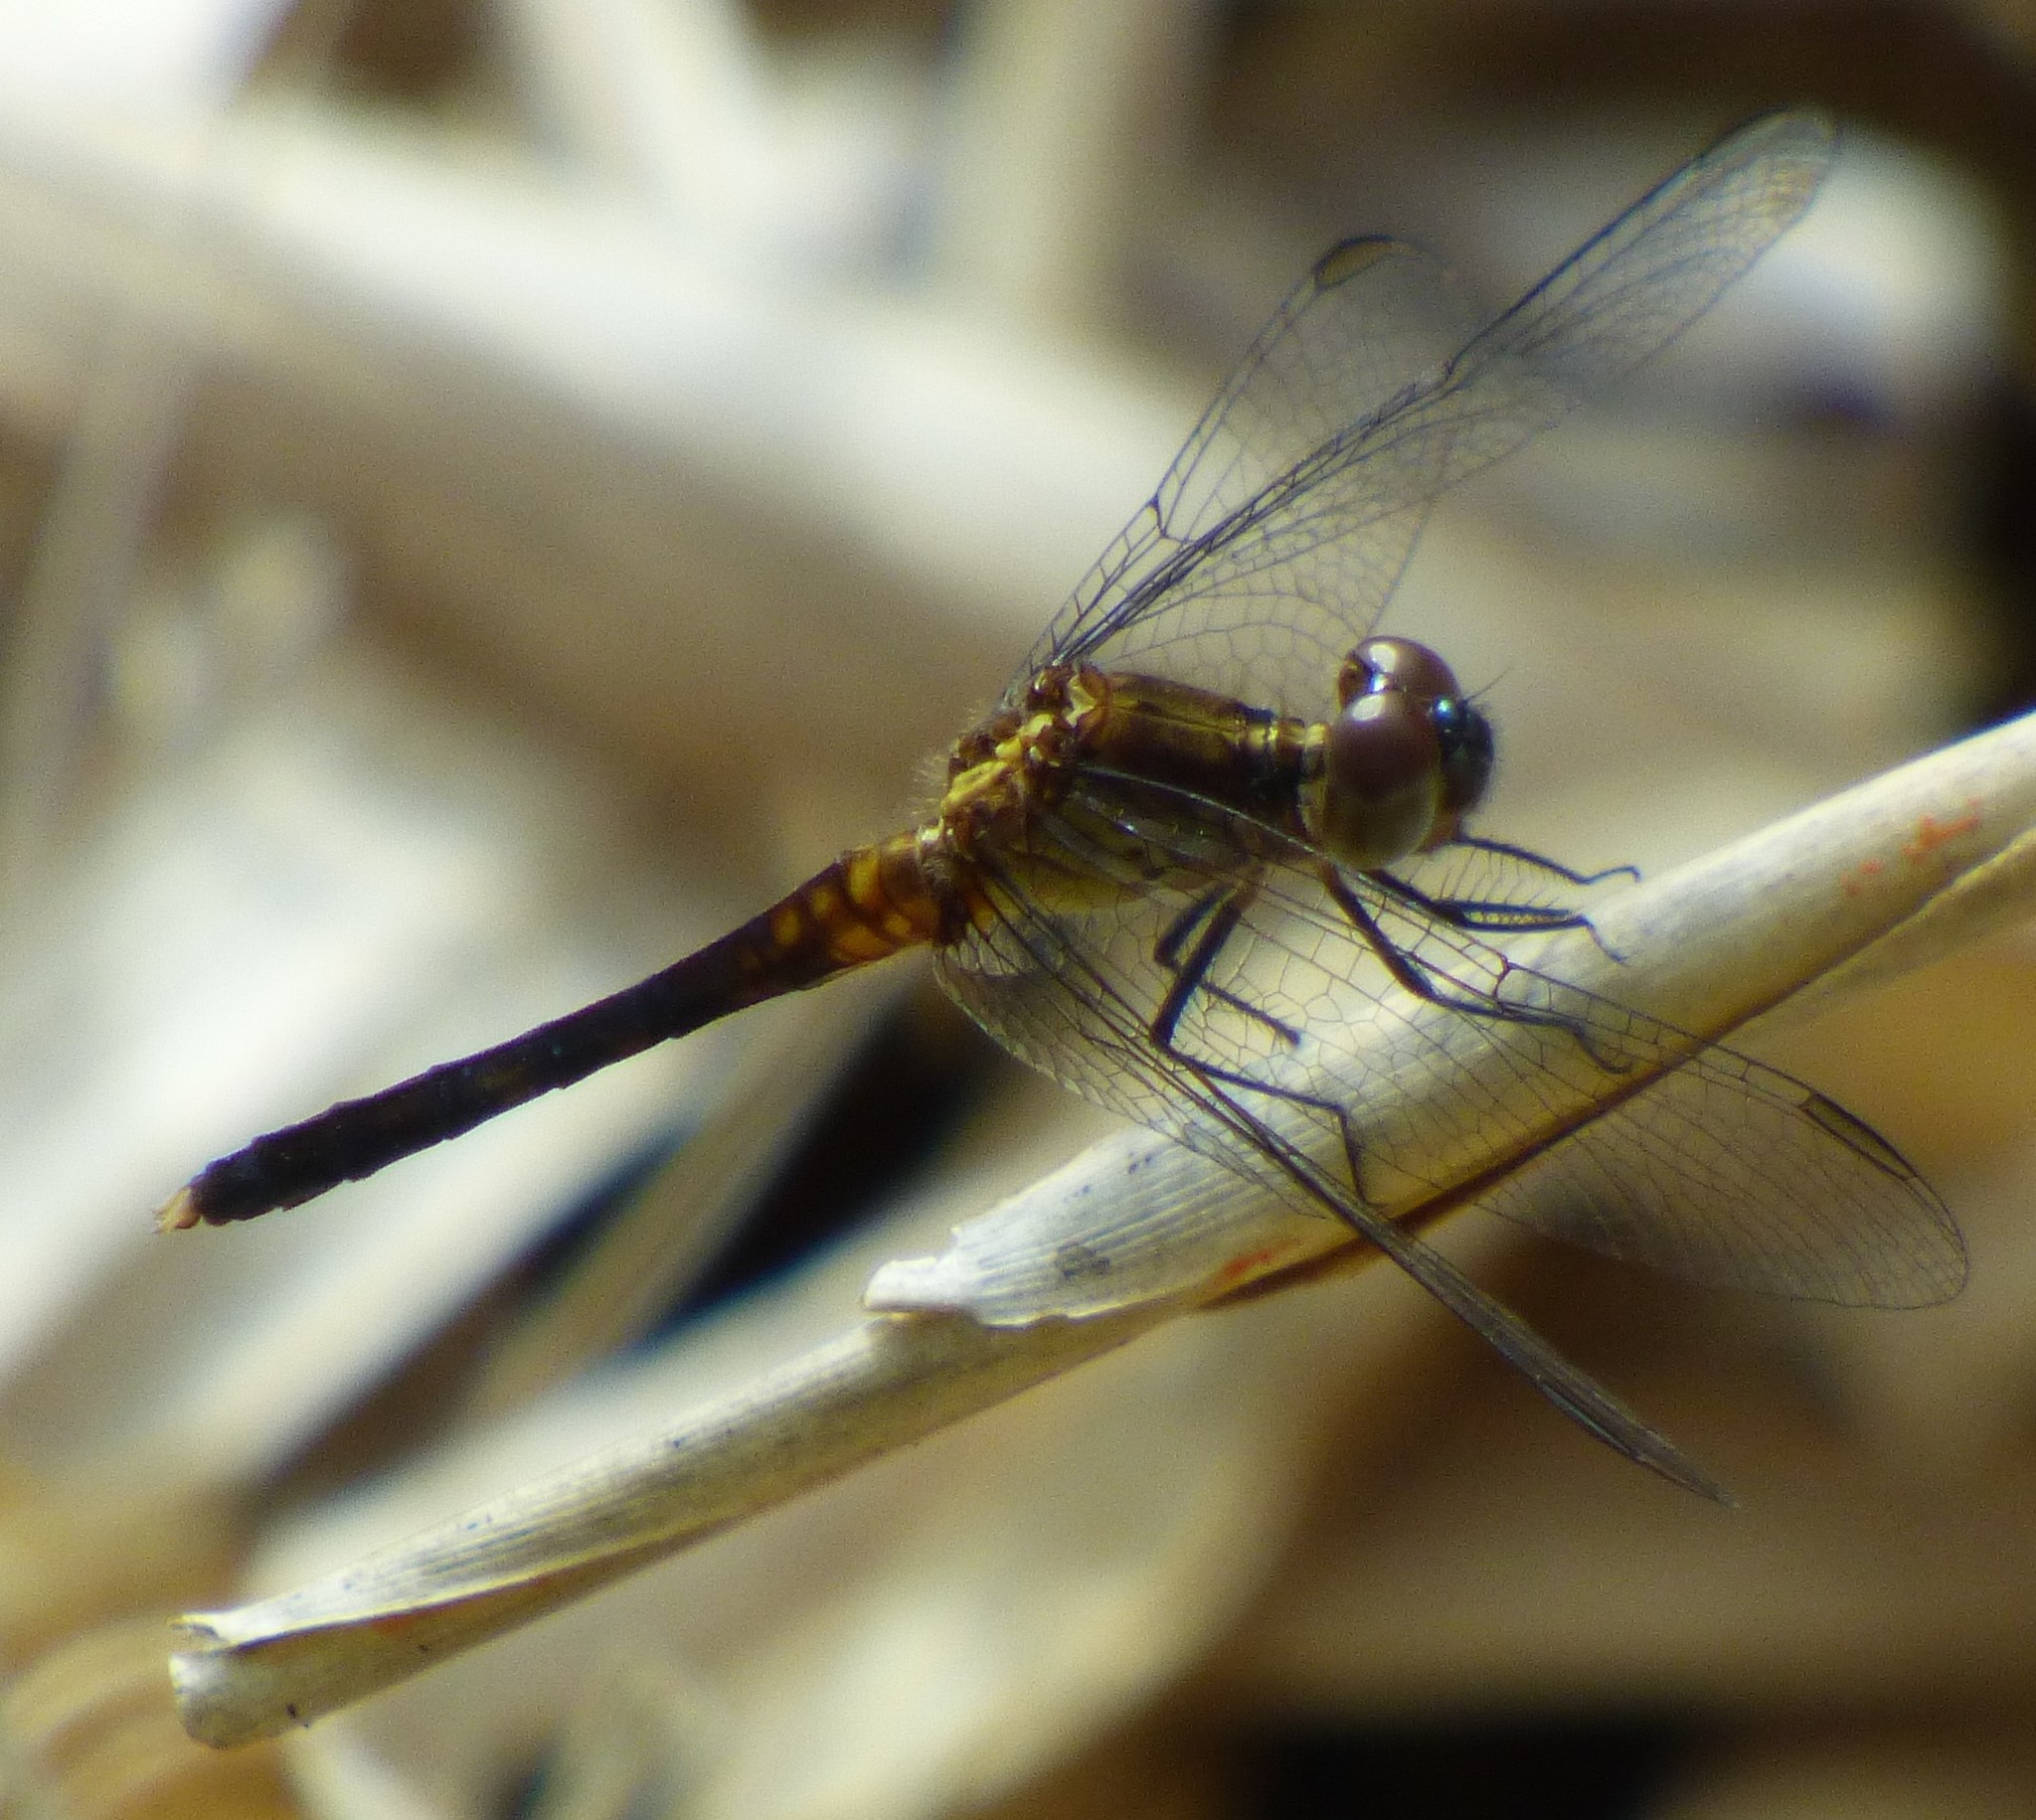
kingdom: Animalia
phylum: Arthropoda
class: Insecta
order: Odonata
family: Libellulidae
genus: Erythrodiplax
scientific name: Erythrodiplax minuscula
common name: Little blue dragonlet
